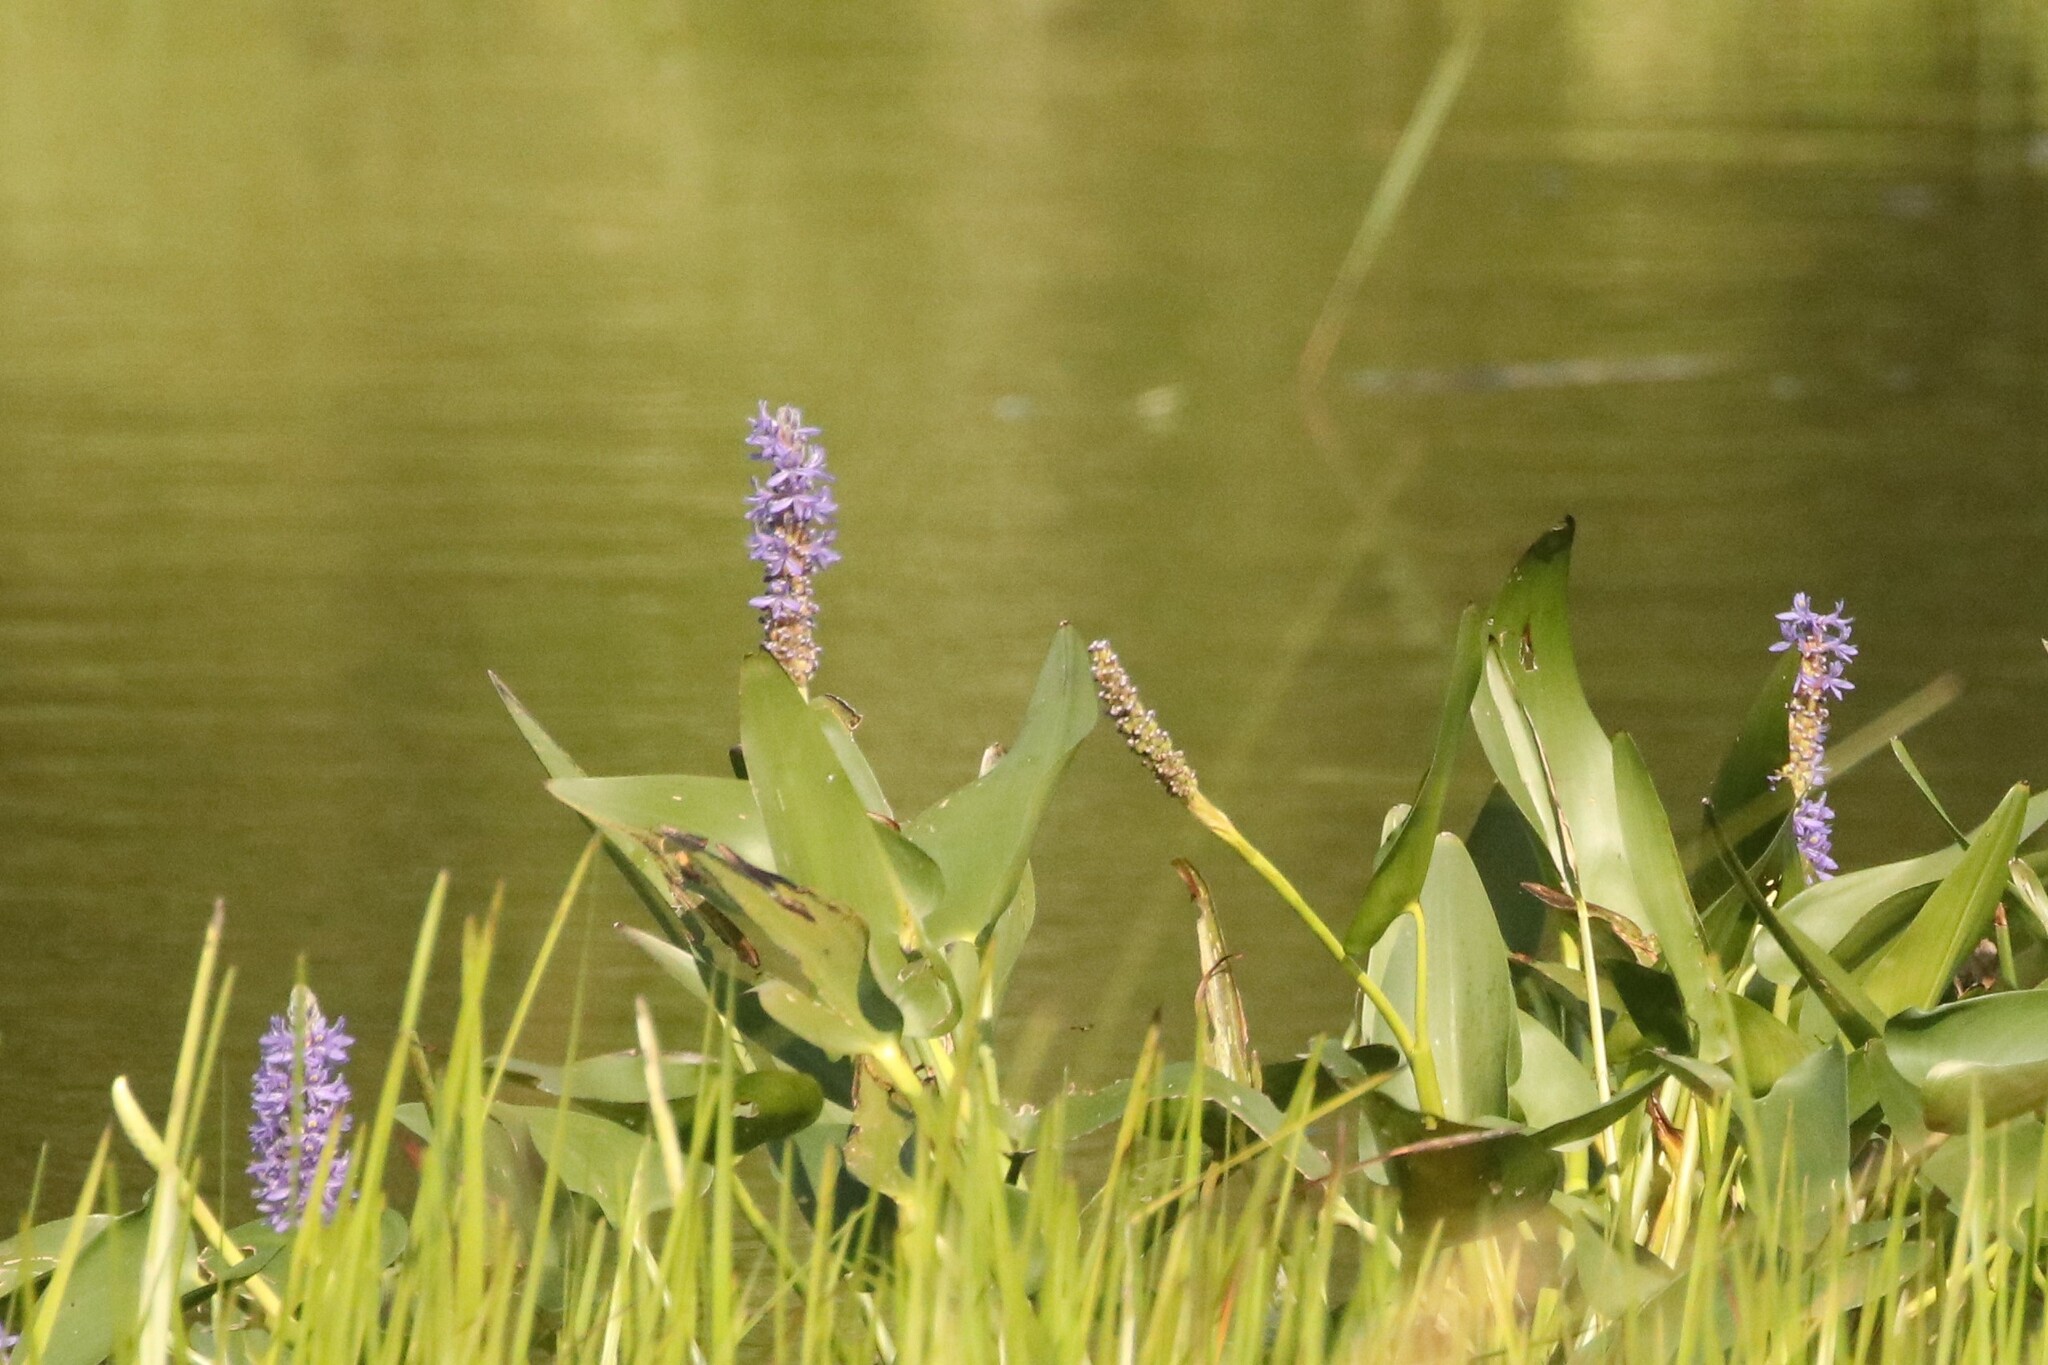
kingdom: Plantae
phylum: Tracheophyta
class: Liliopsida
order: Commelinales
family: Pontederiaceae
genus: Pontederia
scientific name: Pontederia cordata
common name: Pickerelweed
